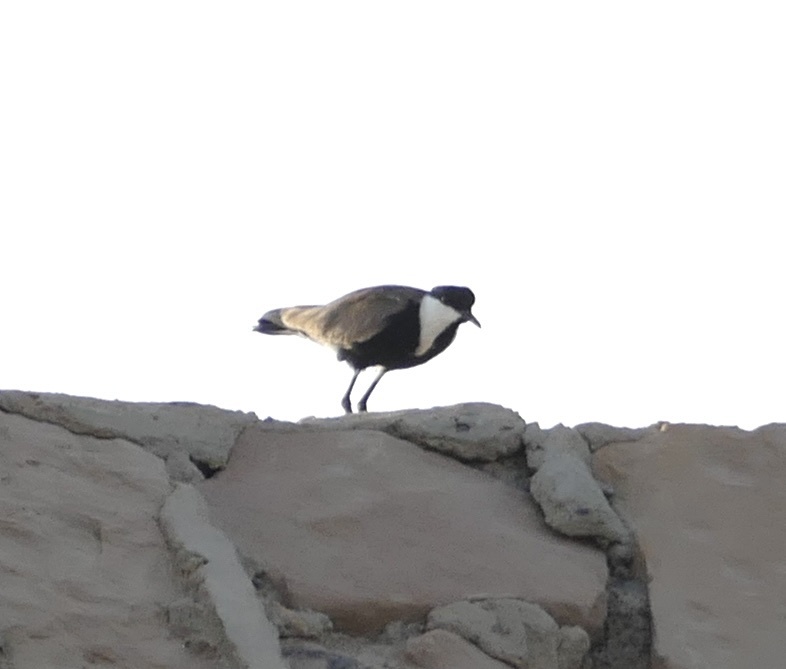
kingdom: Animalia
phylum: Chordata
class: Aves
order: Charadriiformes
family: Charadriidae
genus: Vanellus
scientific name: Vanellus spinosus
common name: Spur-winged lapwing
